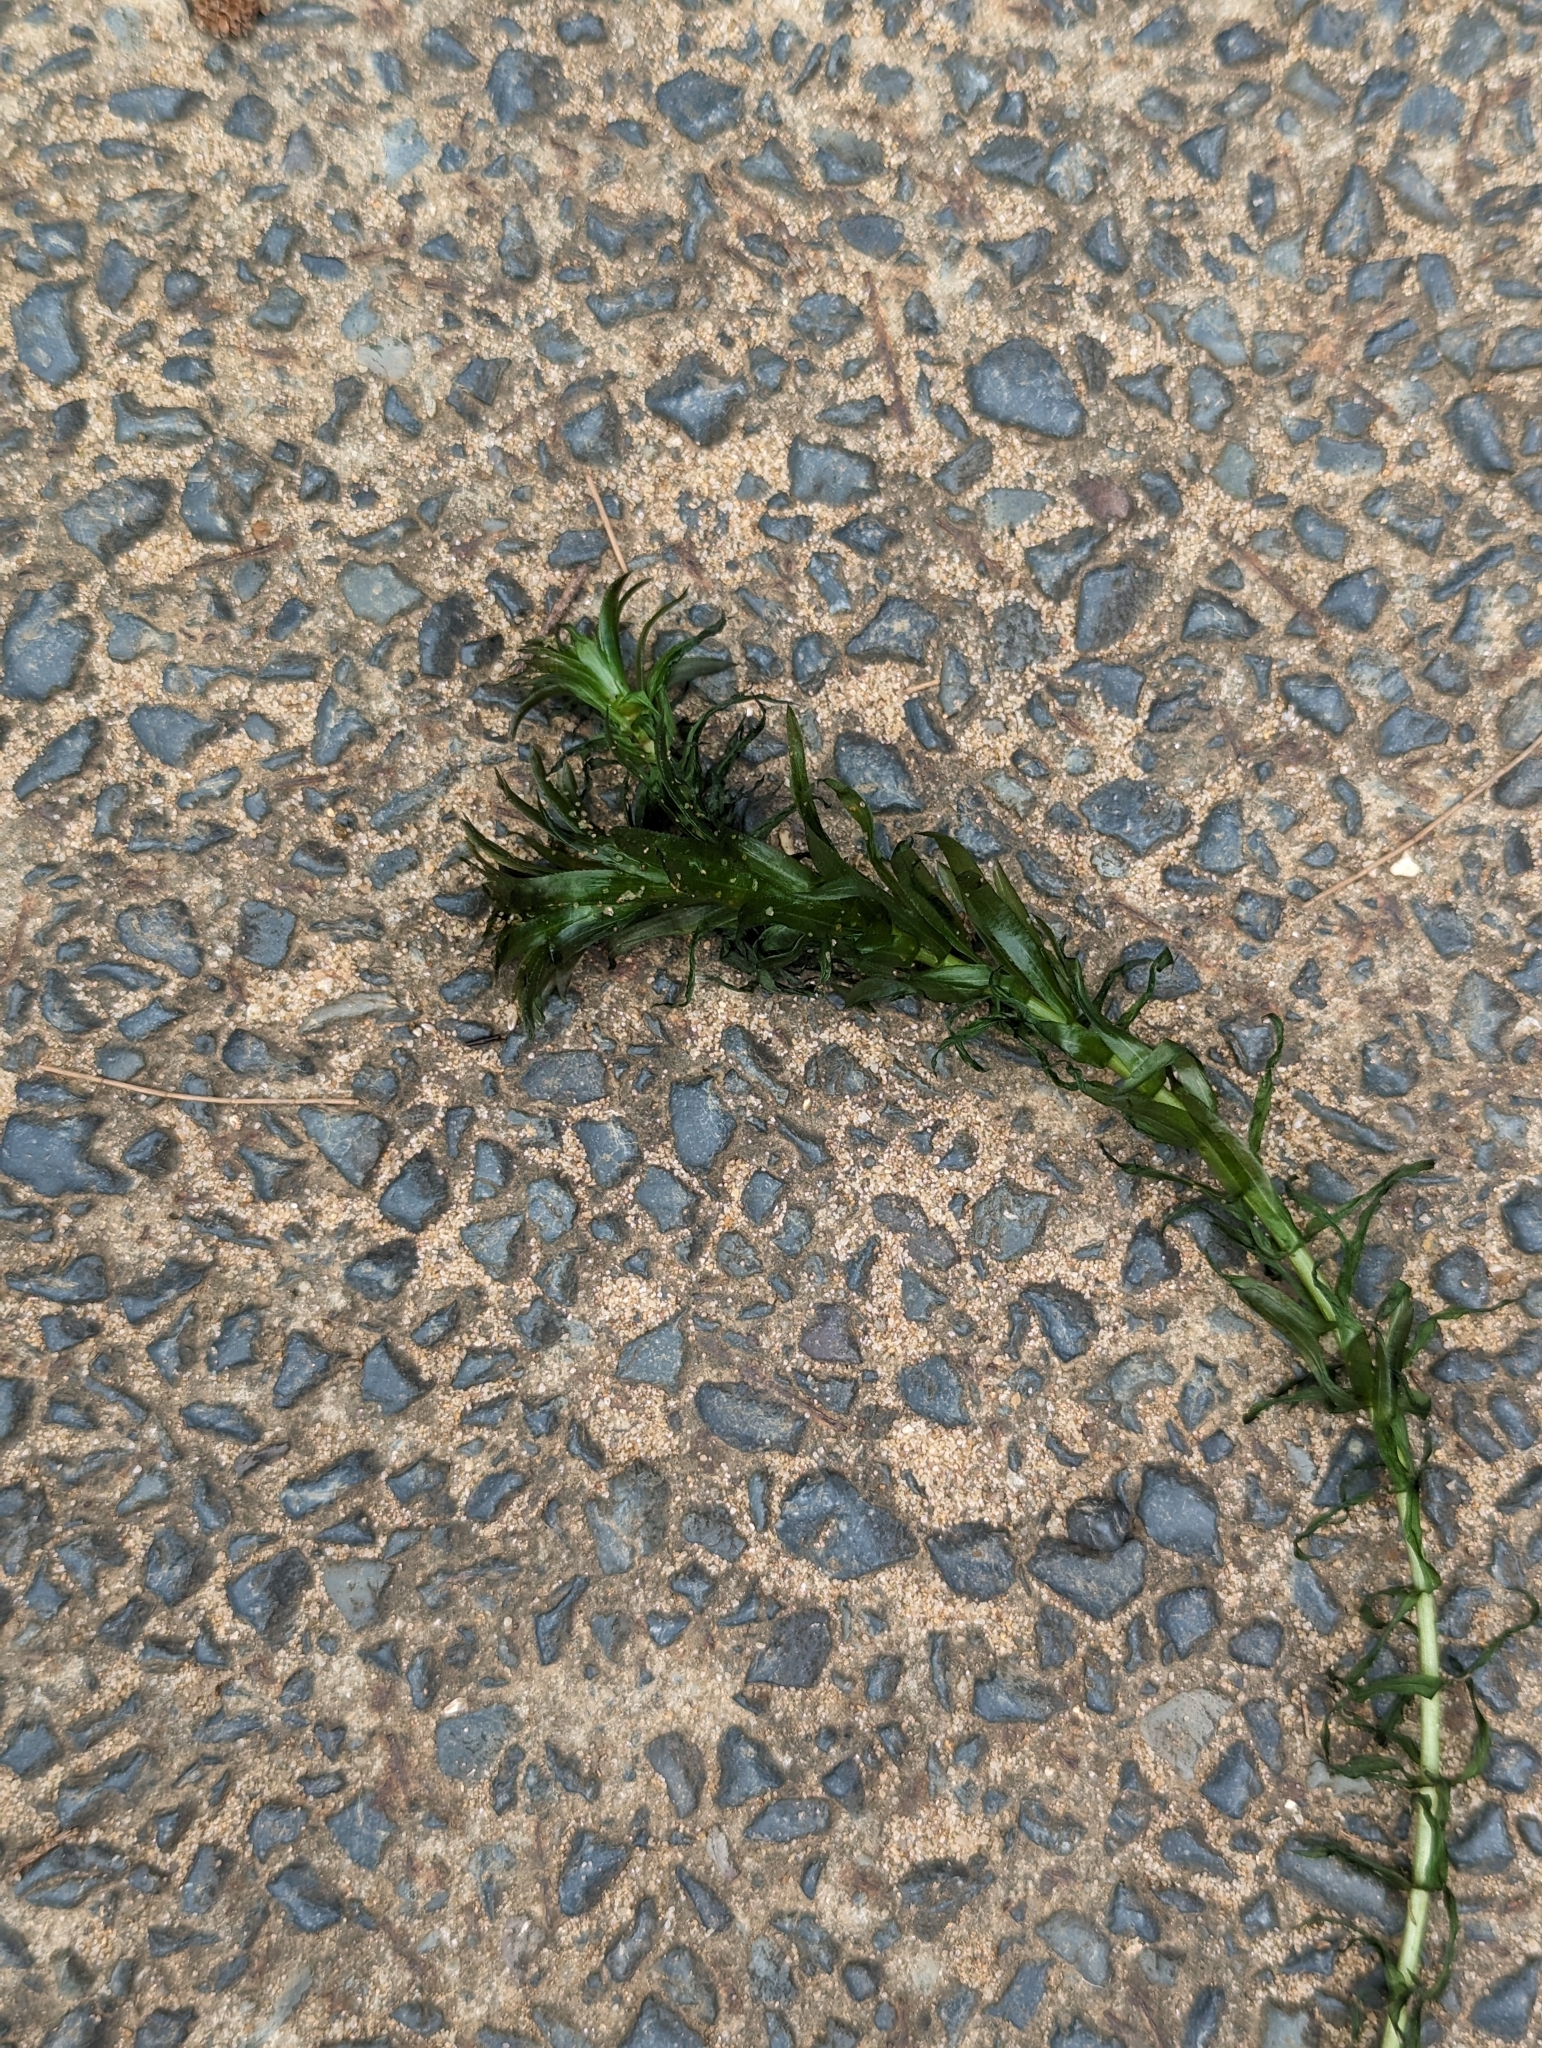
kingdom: Plantae
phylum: Tracheophyta
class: Liliopsida
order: Alismatales
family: Hydrocharitaceae
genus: Elodea
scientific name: Elodea densa
